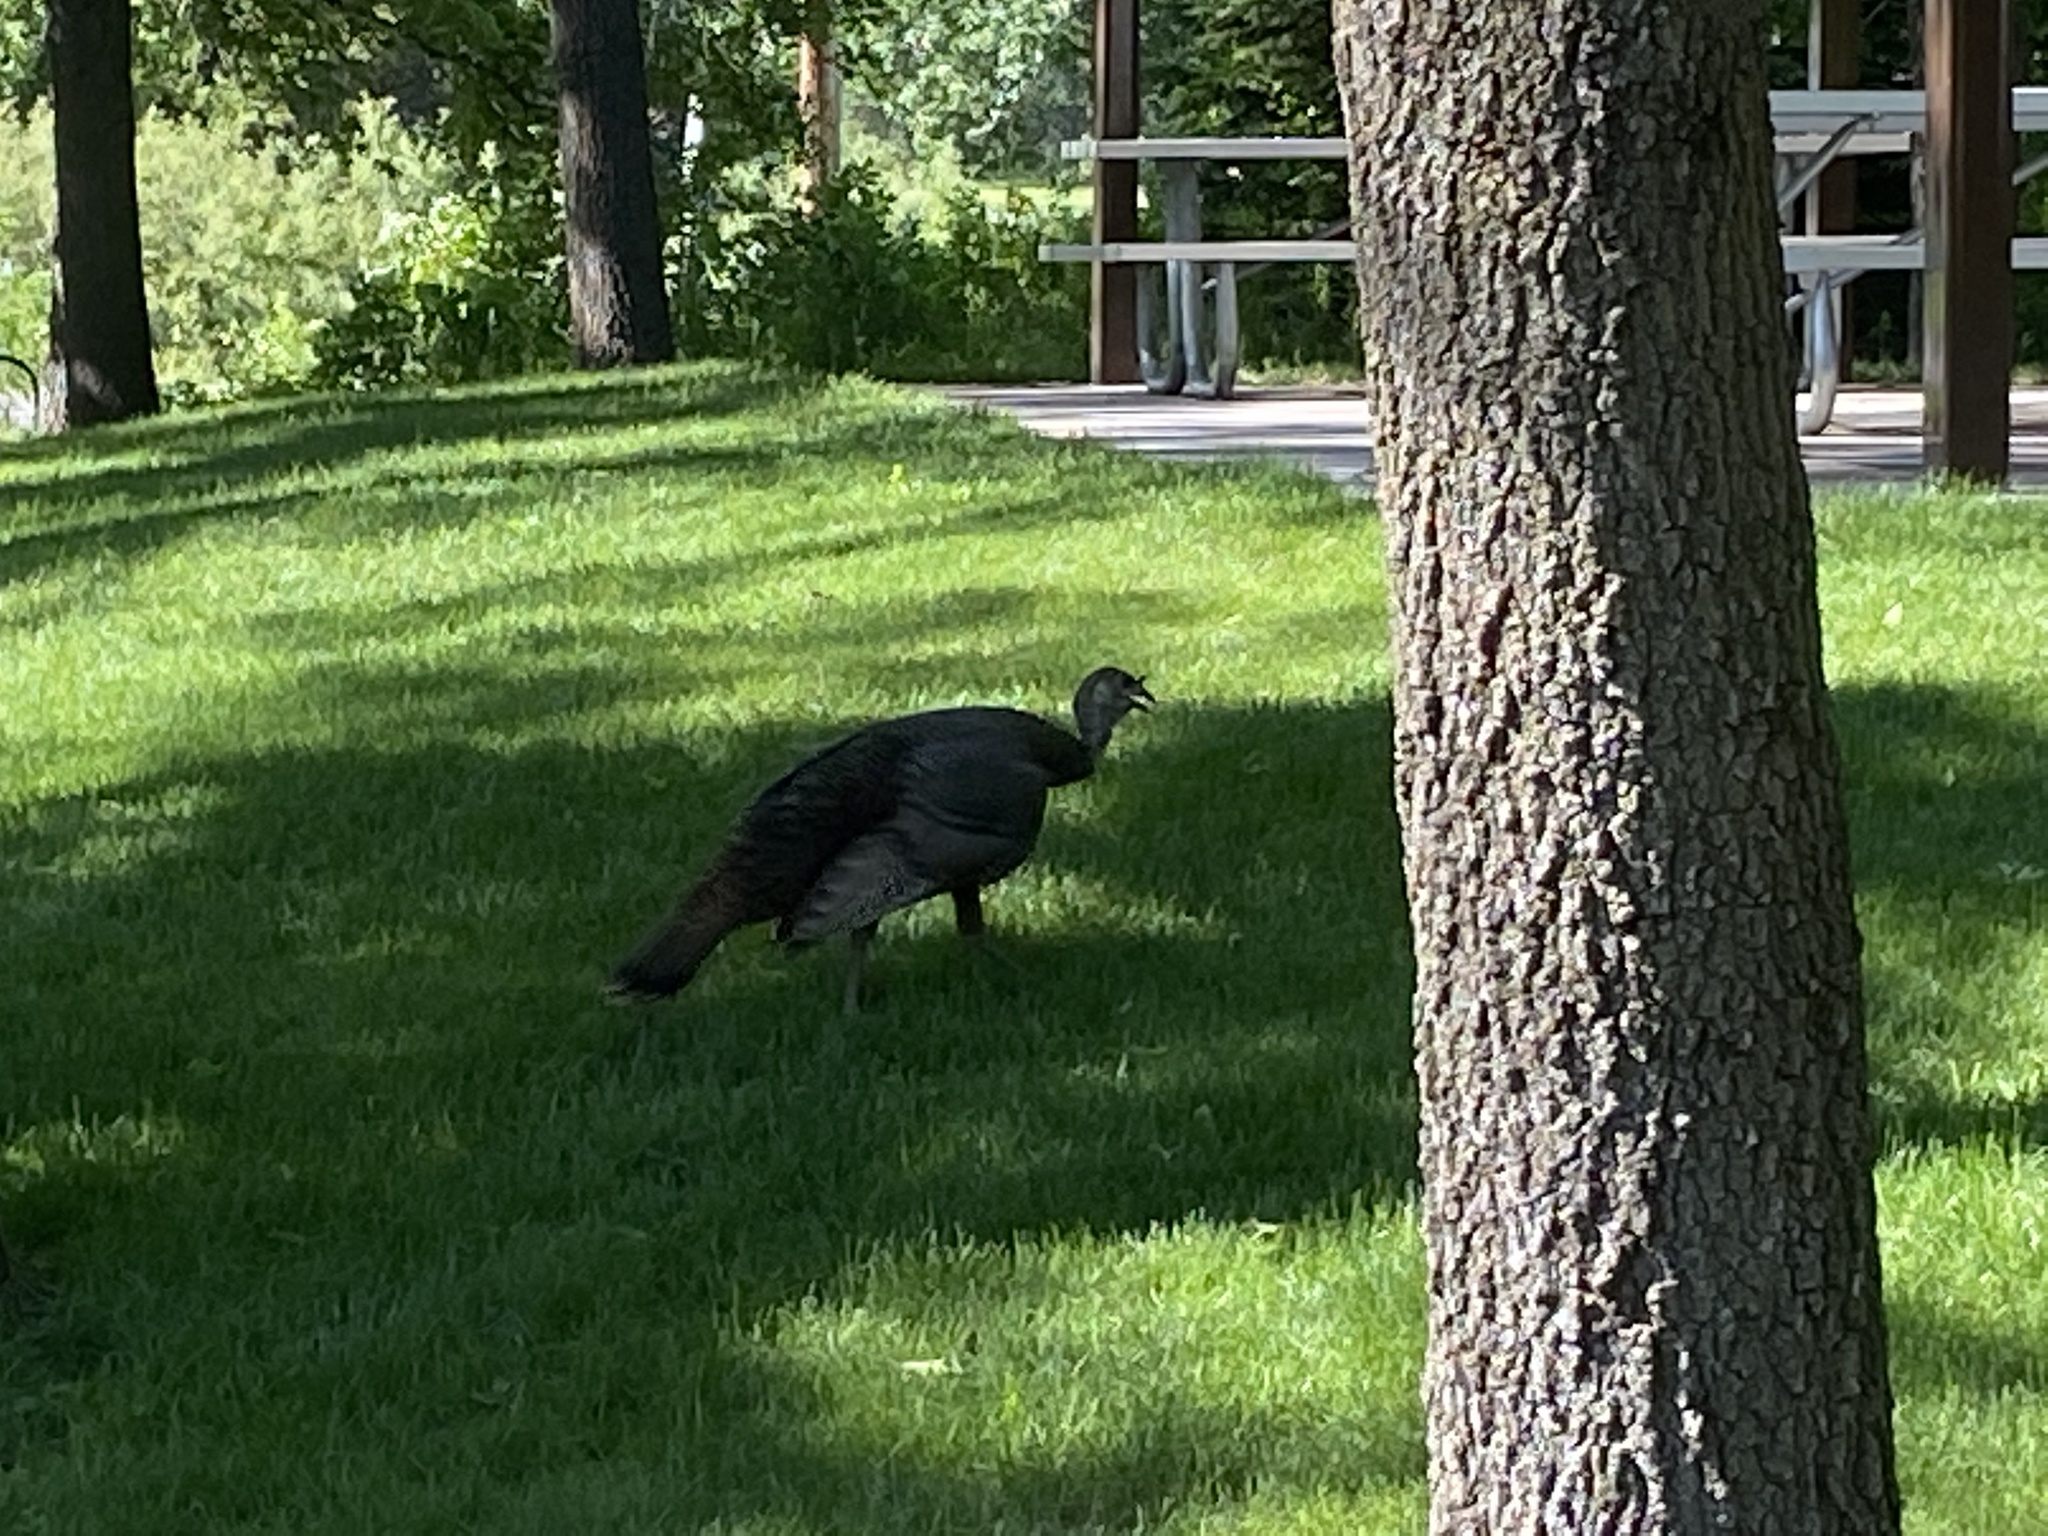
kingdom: Animalia
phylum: Chordata
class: Aves
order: Galliformes
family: Phasianidae
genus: Meleagris
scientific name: Meleagris gallopavo
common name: Wild turkey
